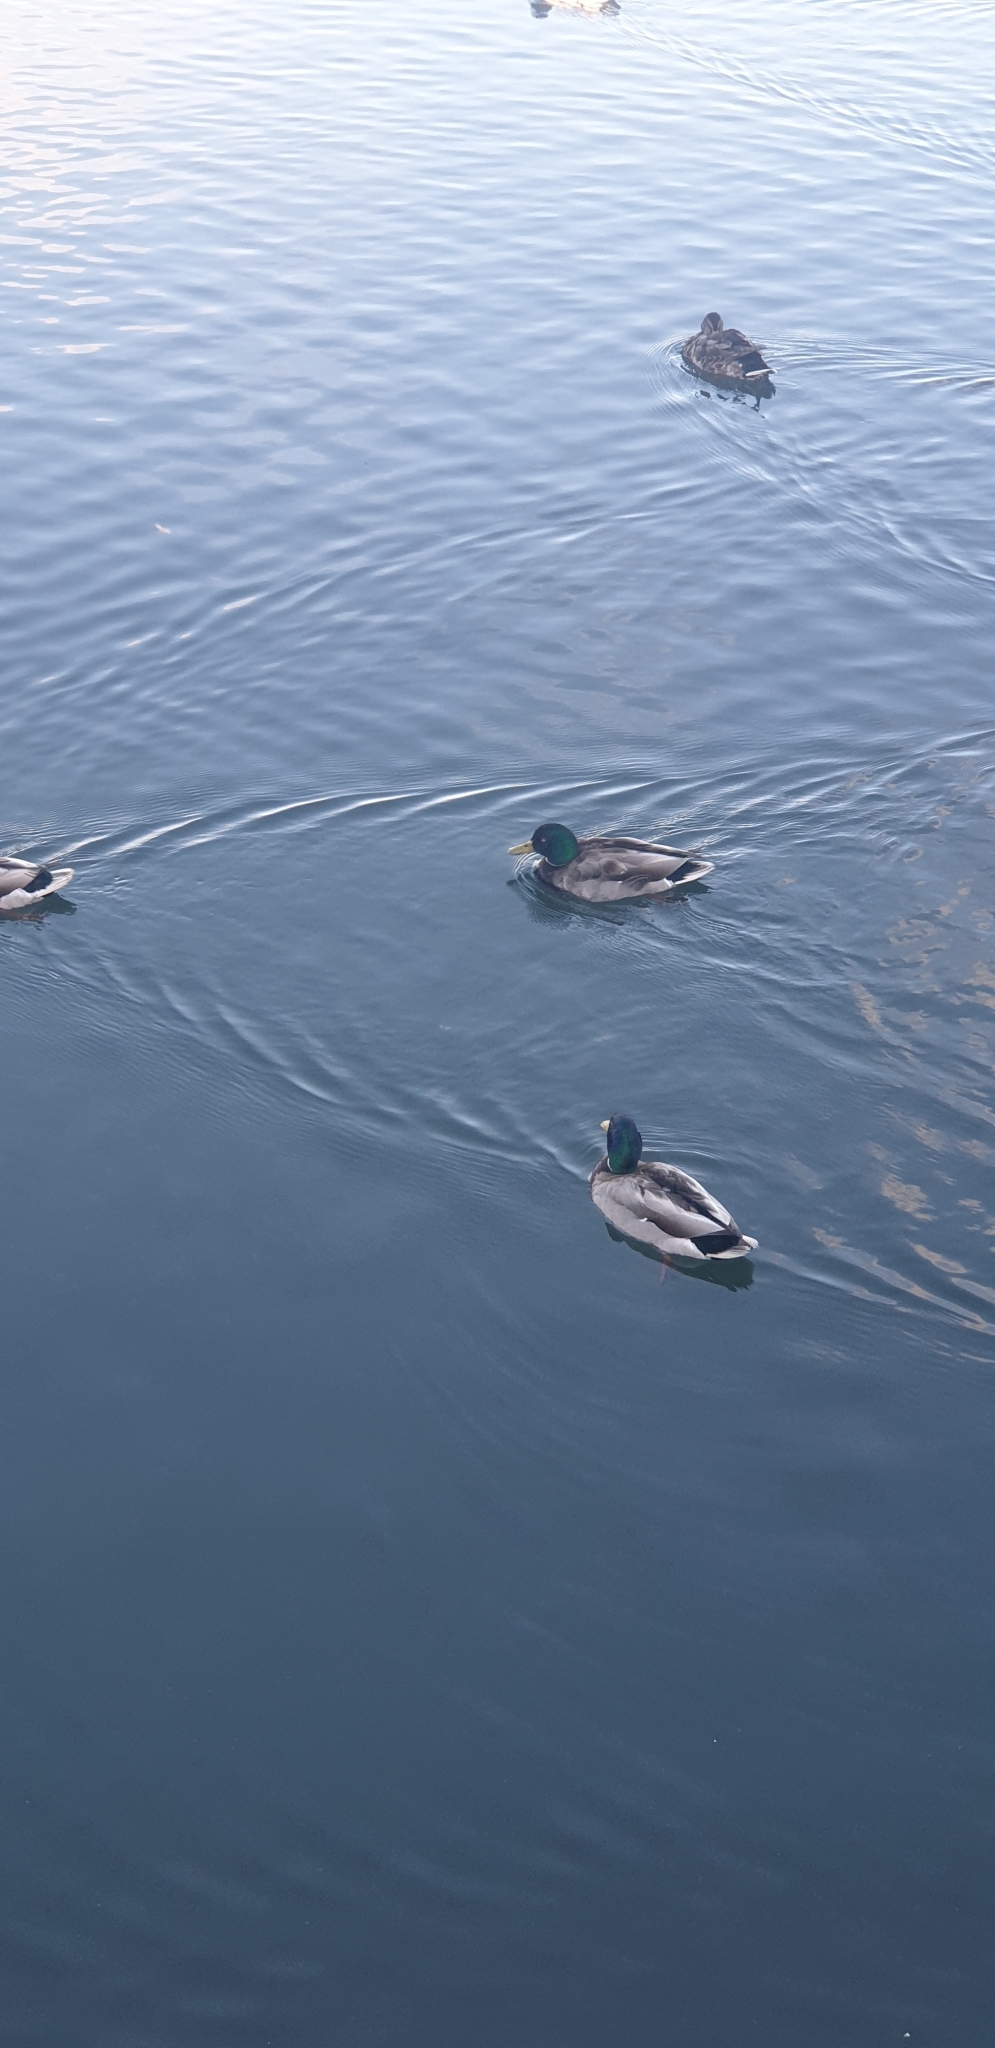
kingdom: Animalia
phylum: Chordata
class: Aves
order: Anseriformes
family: Anatidae
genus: Anas
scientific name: Anas platyrhynchos
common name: Mallard
